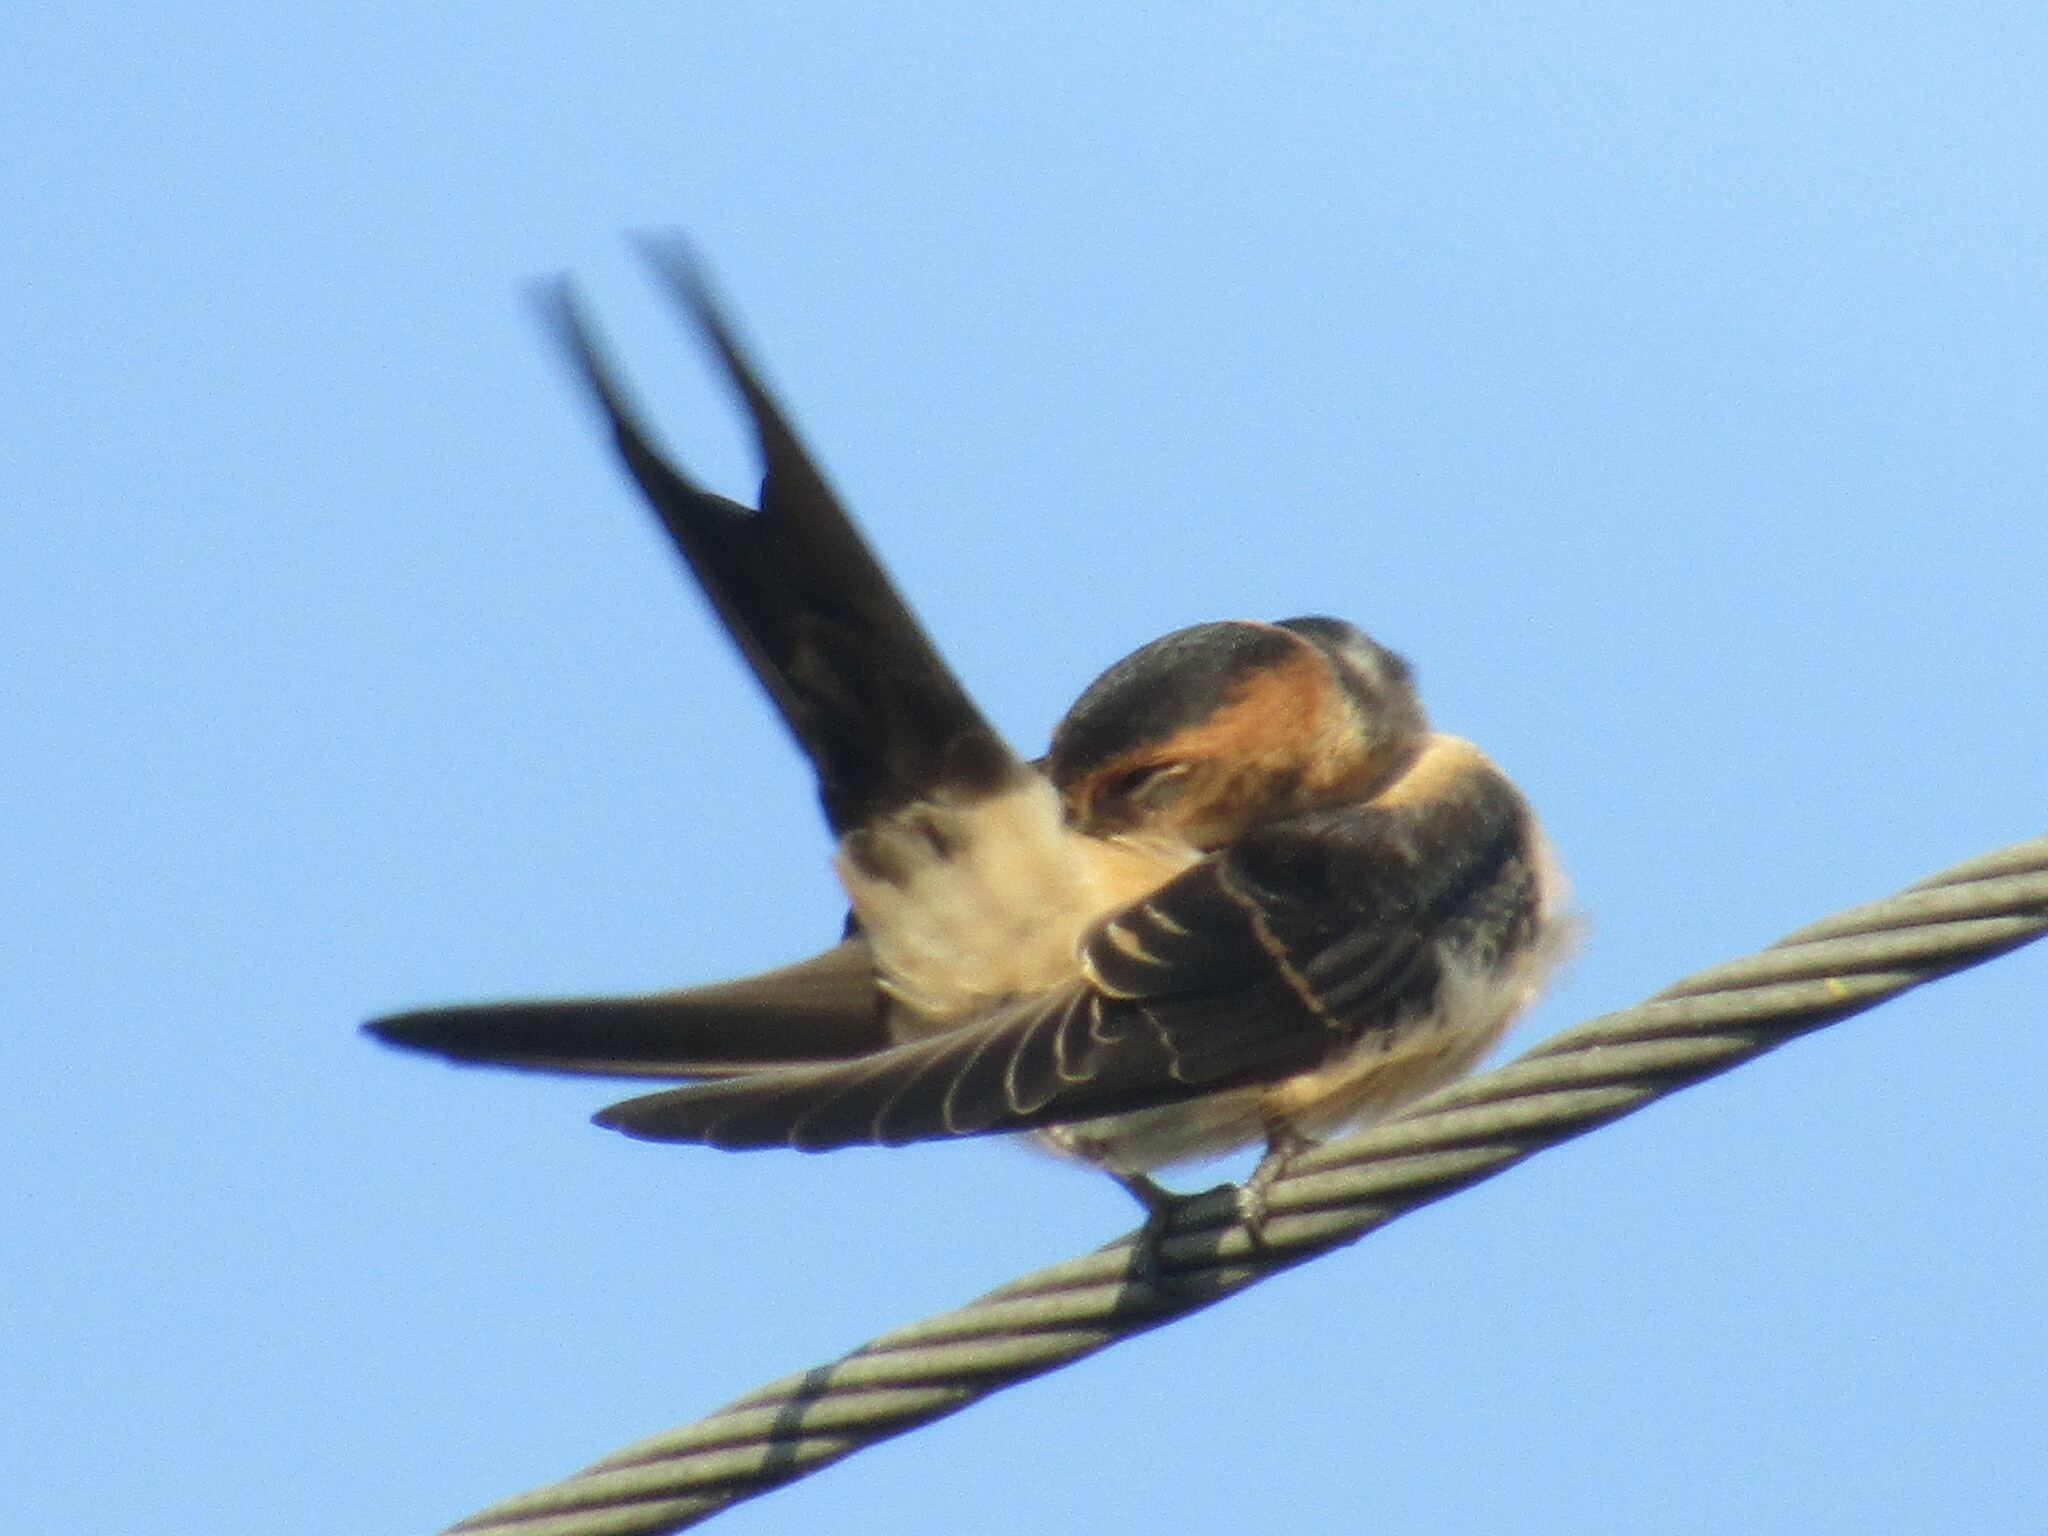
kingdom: Animalia
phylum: Chordata
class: Aves
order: Passeriformes
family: Hirundinidae
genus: Cecropis
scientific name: Cecropis daurica
